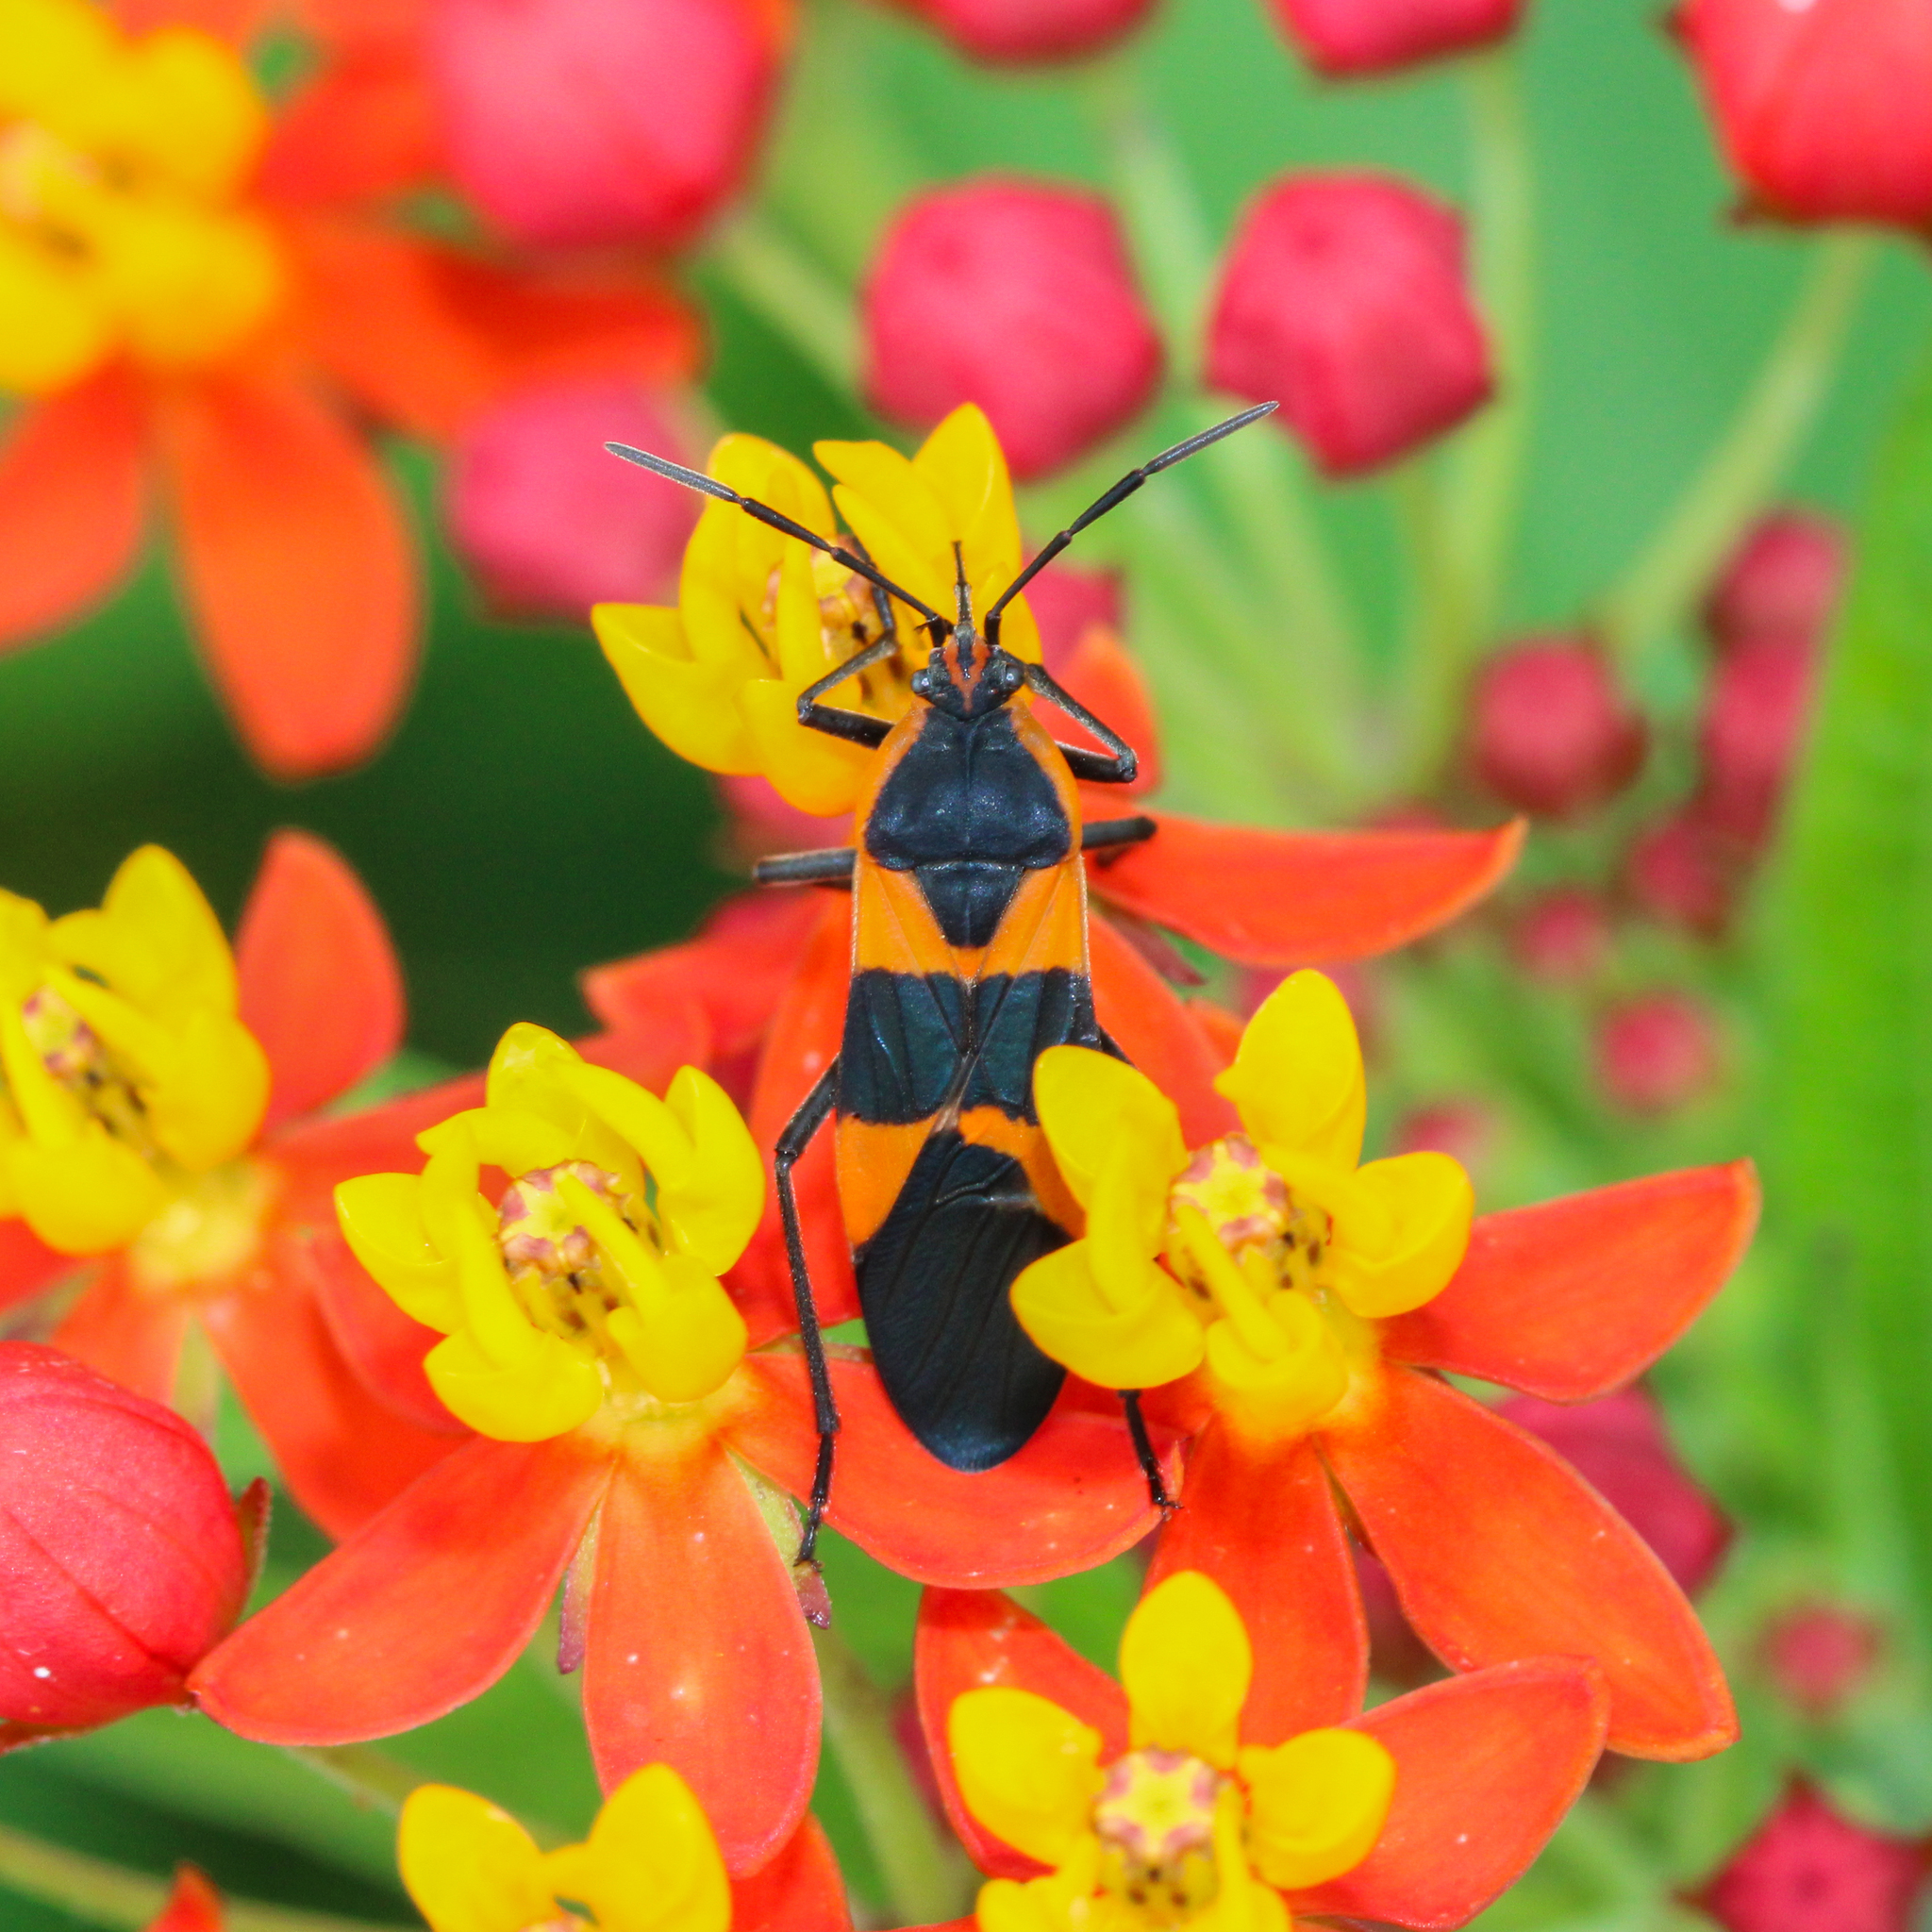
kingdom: Animalia
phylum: Arthropoda
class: Insecta
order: Hemiptera
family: Lygaeidae
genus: Oncopeltus
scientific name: Oncopeltus fasciatus
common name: Large milkweed bug
